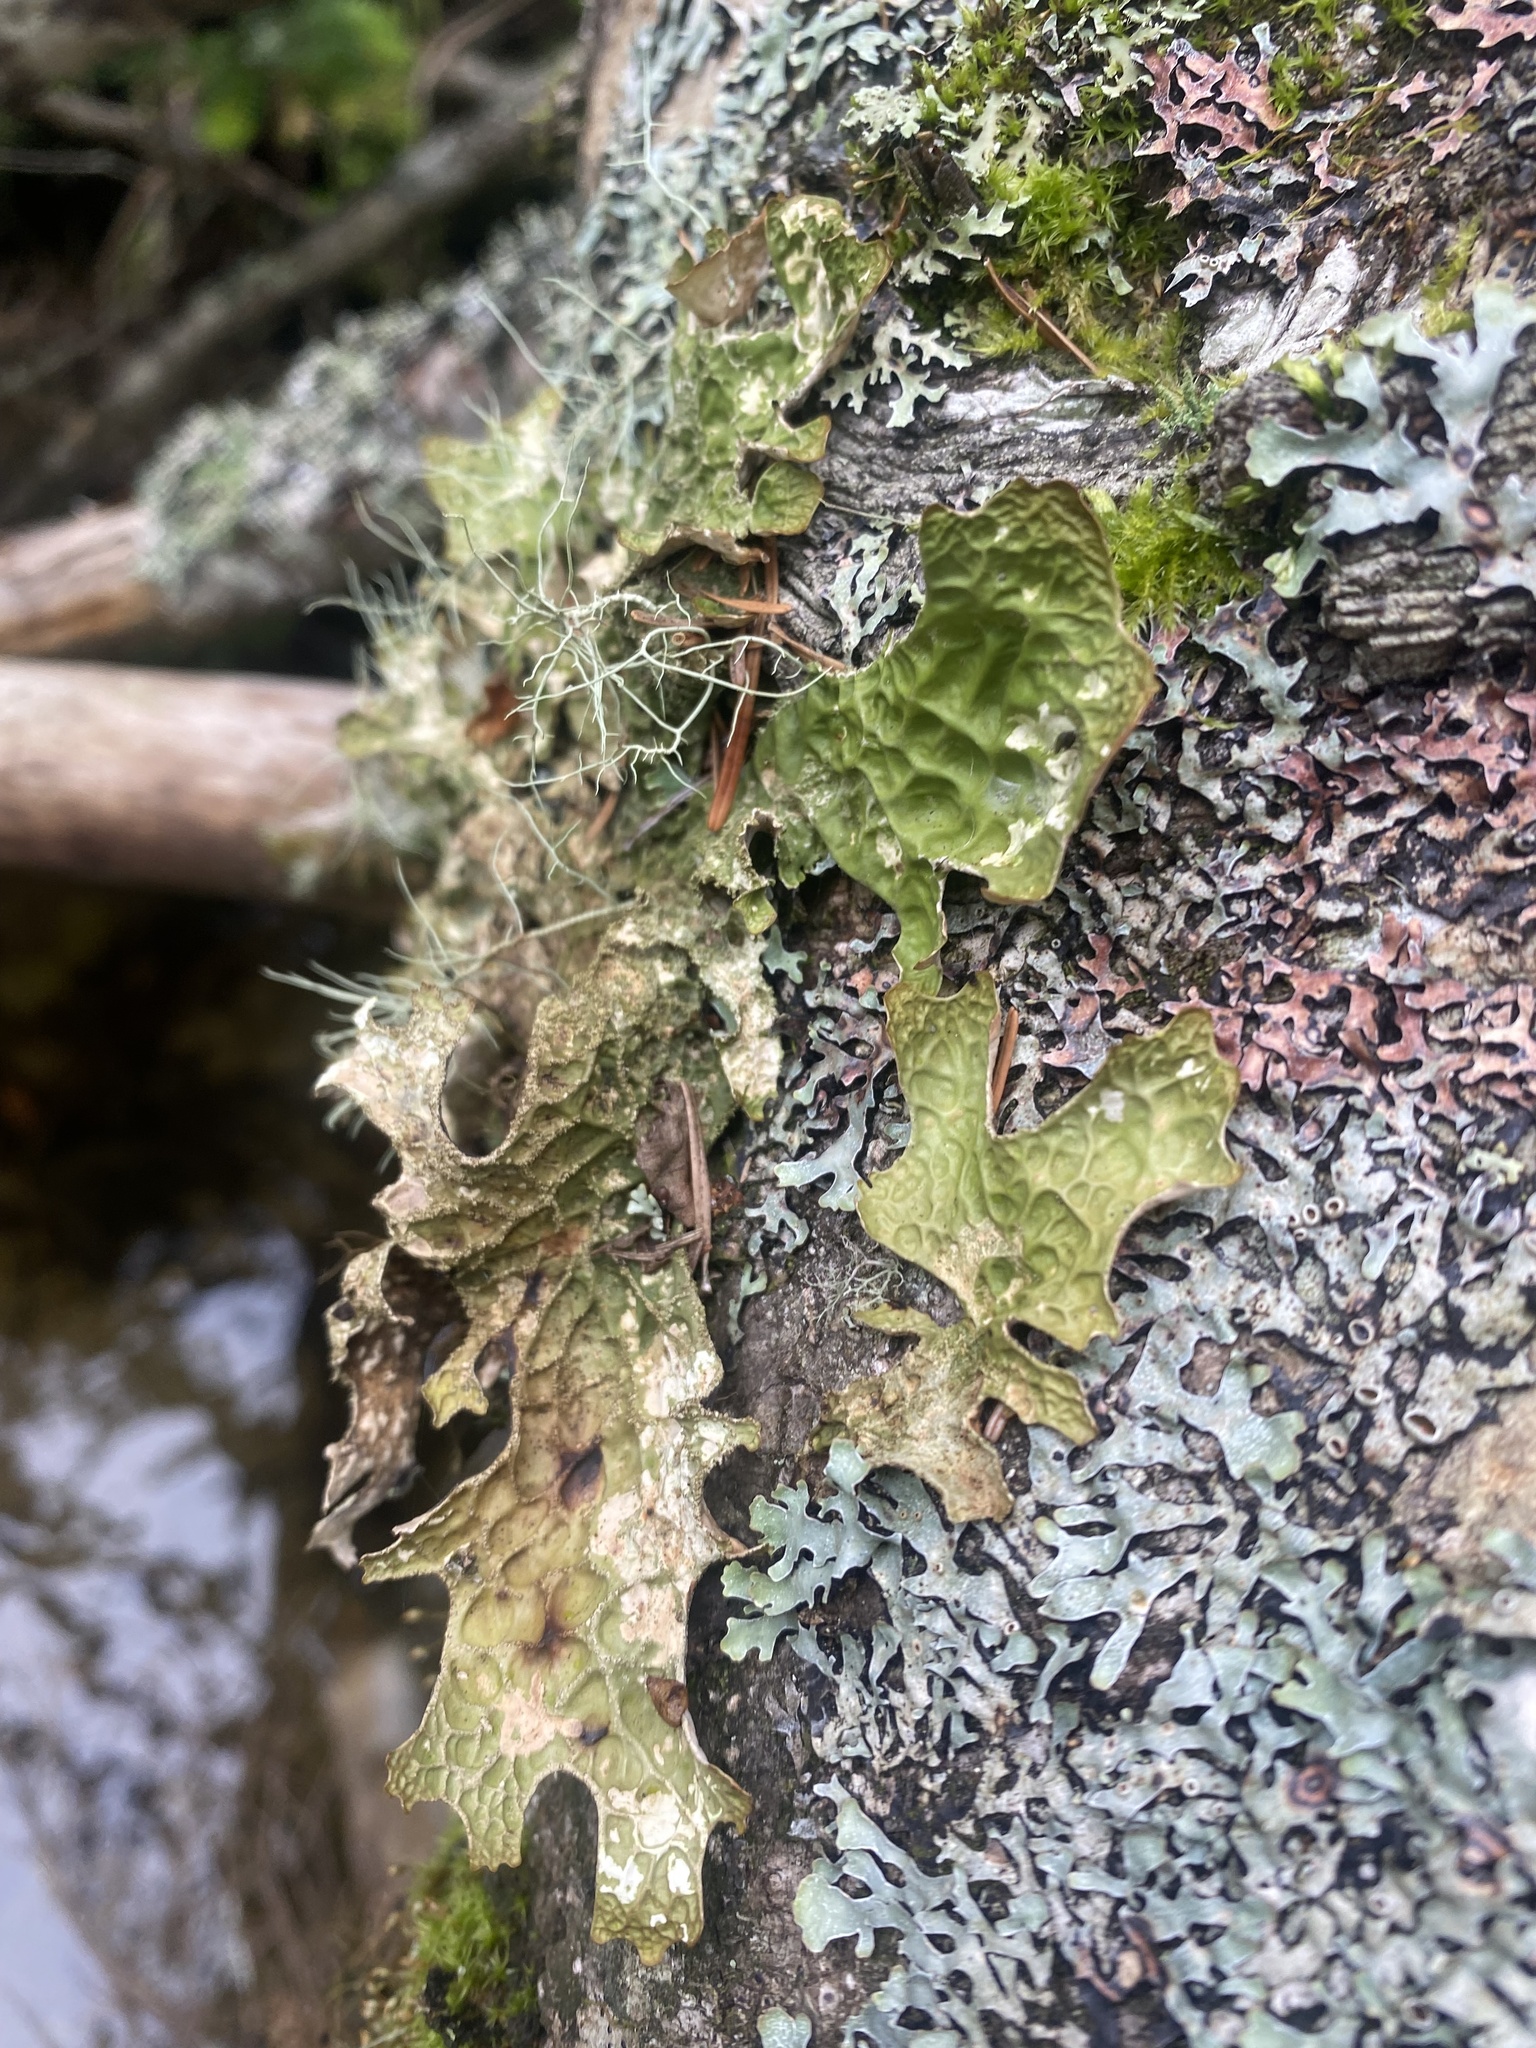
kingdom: Fungi
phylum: Ascomycota
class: Lecanoromycetes
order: Peltigerales
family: Lobariaceae
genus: Lobaria
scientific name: Lobaria pulmonaria
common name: Lungwort
